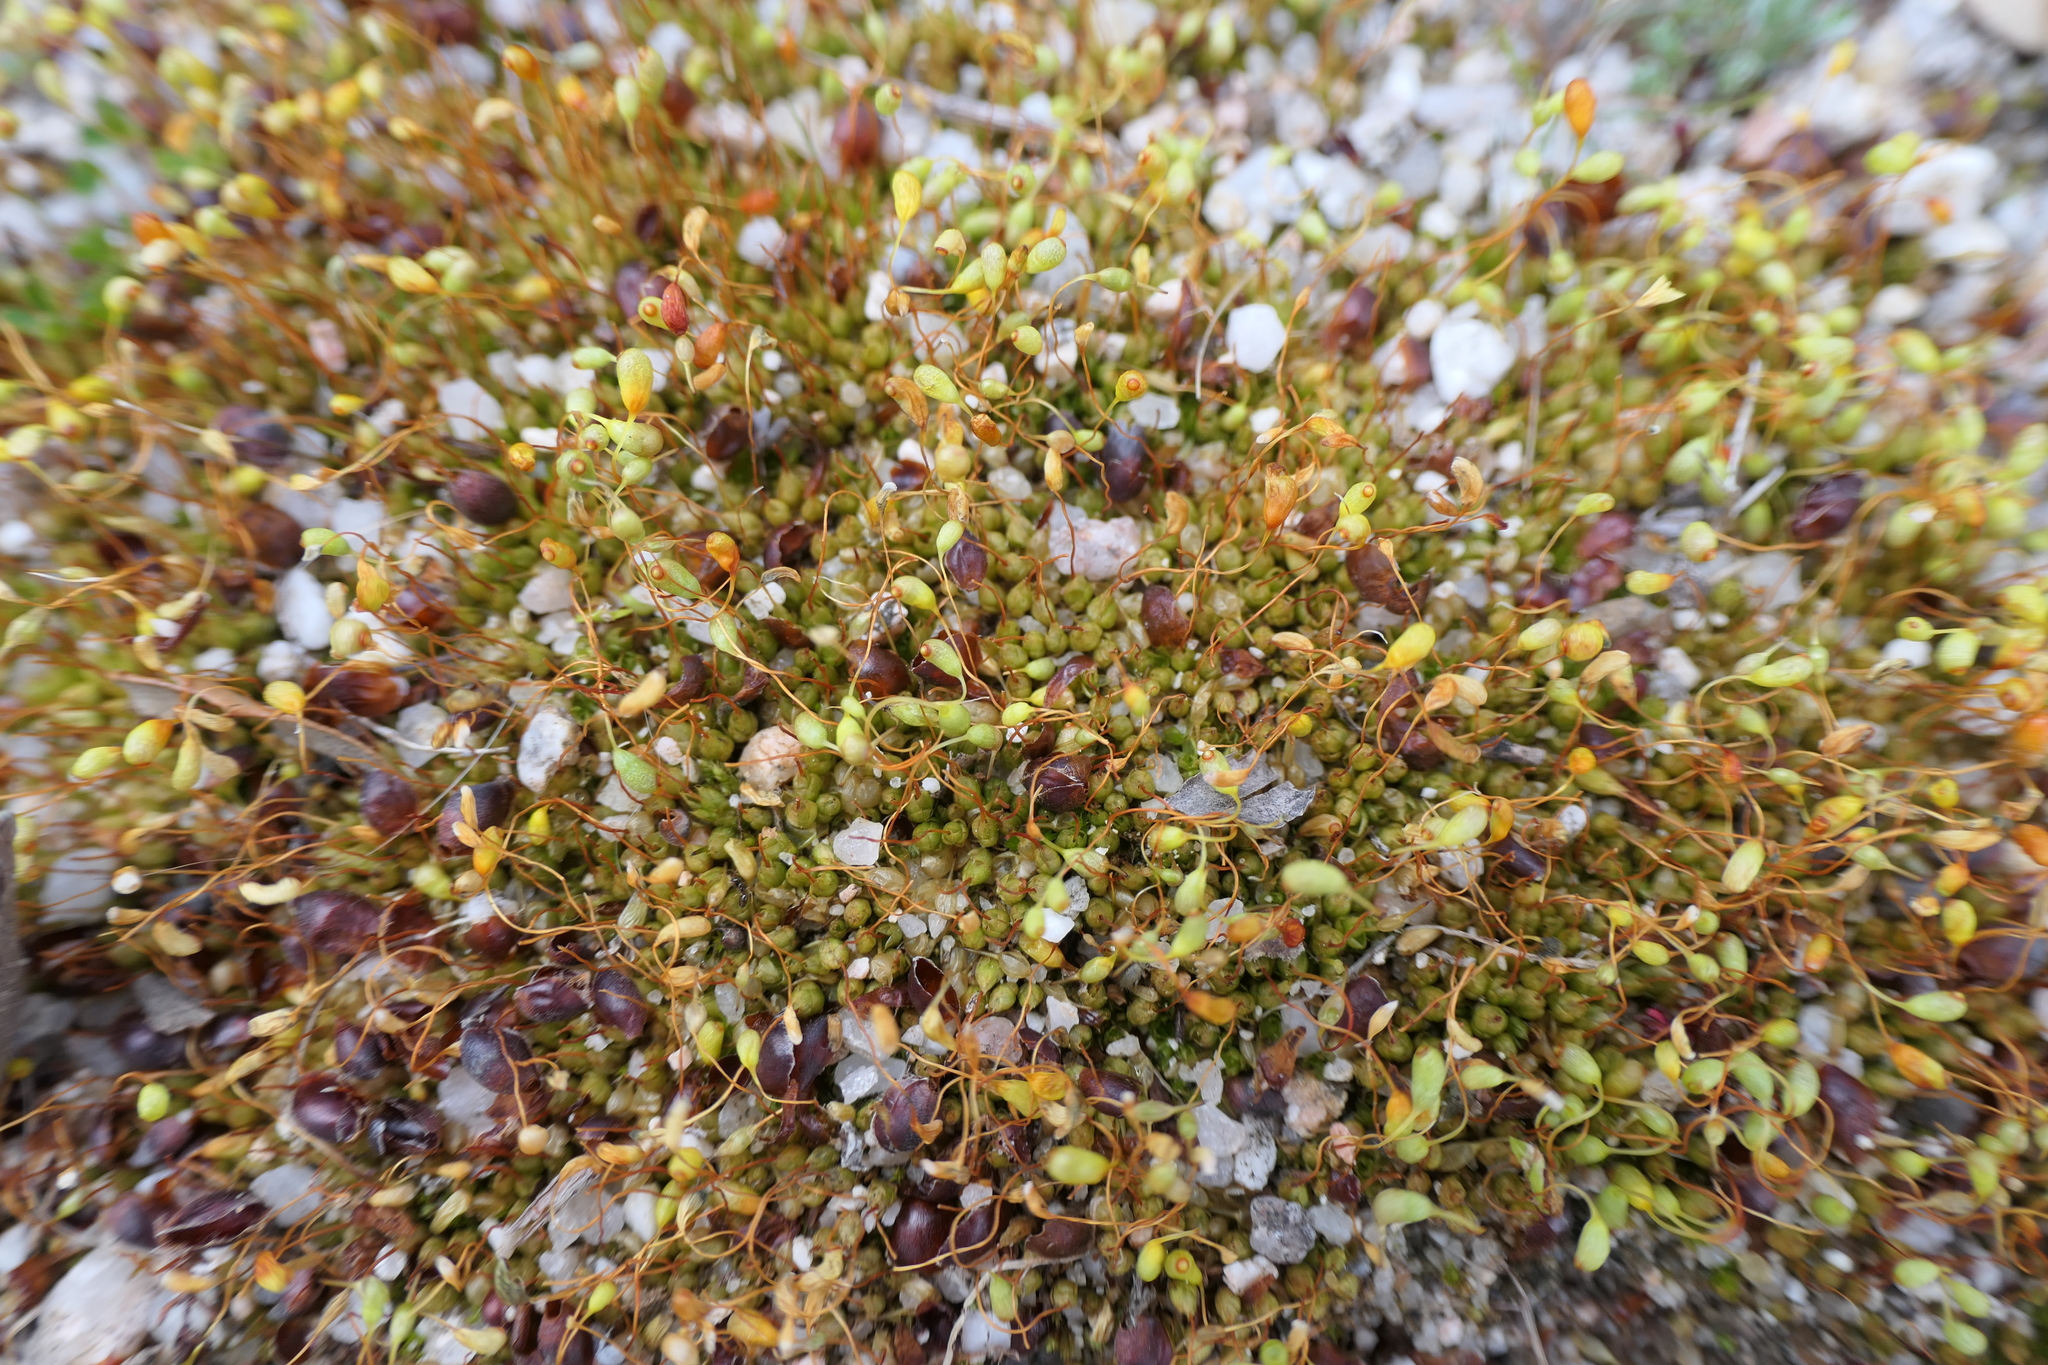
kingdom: Plantae
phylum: Bryophyta
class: Bryopsida
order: Funariales
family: Funariaceae
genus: Funaria
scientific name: Funaria hygrometrica
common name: Common cord moss
